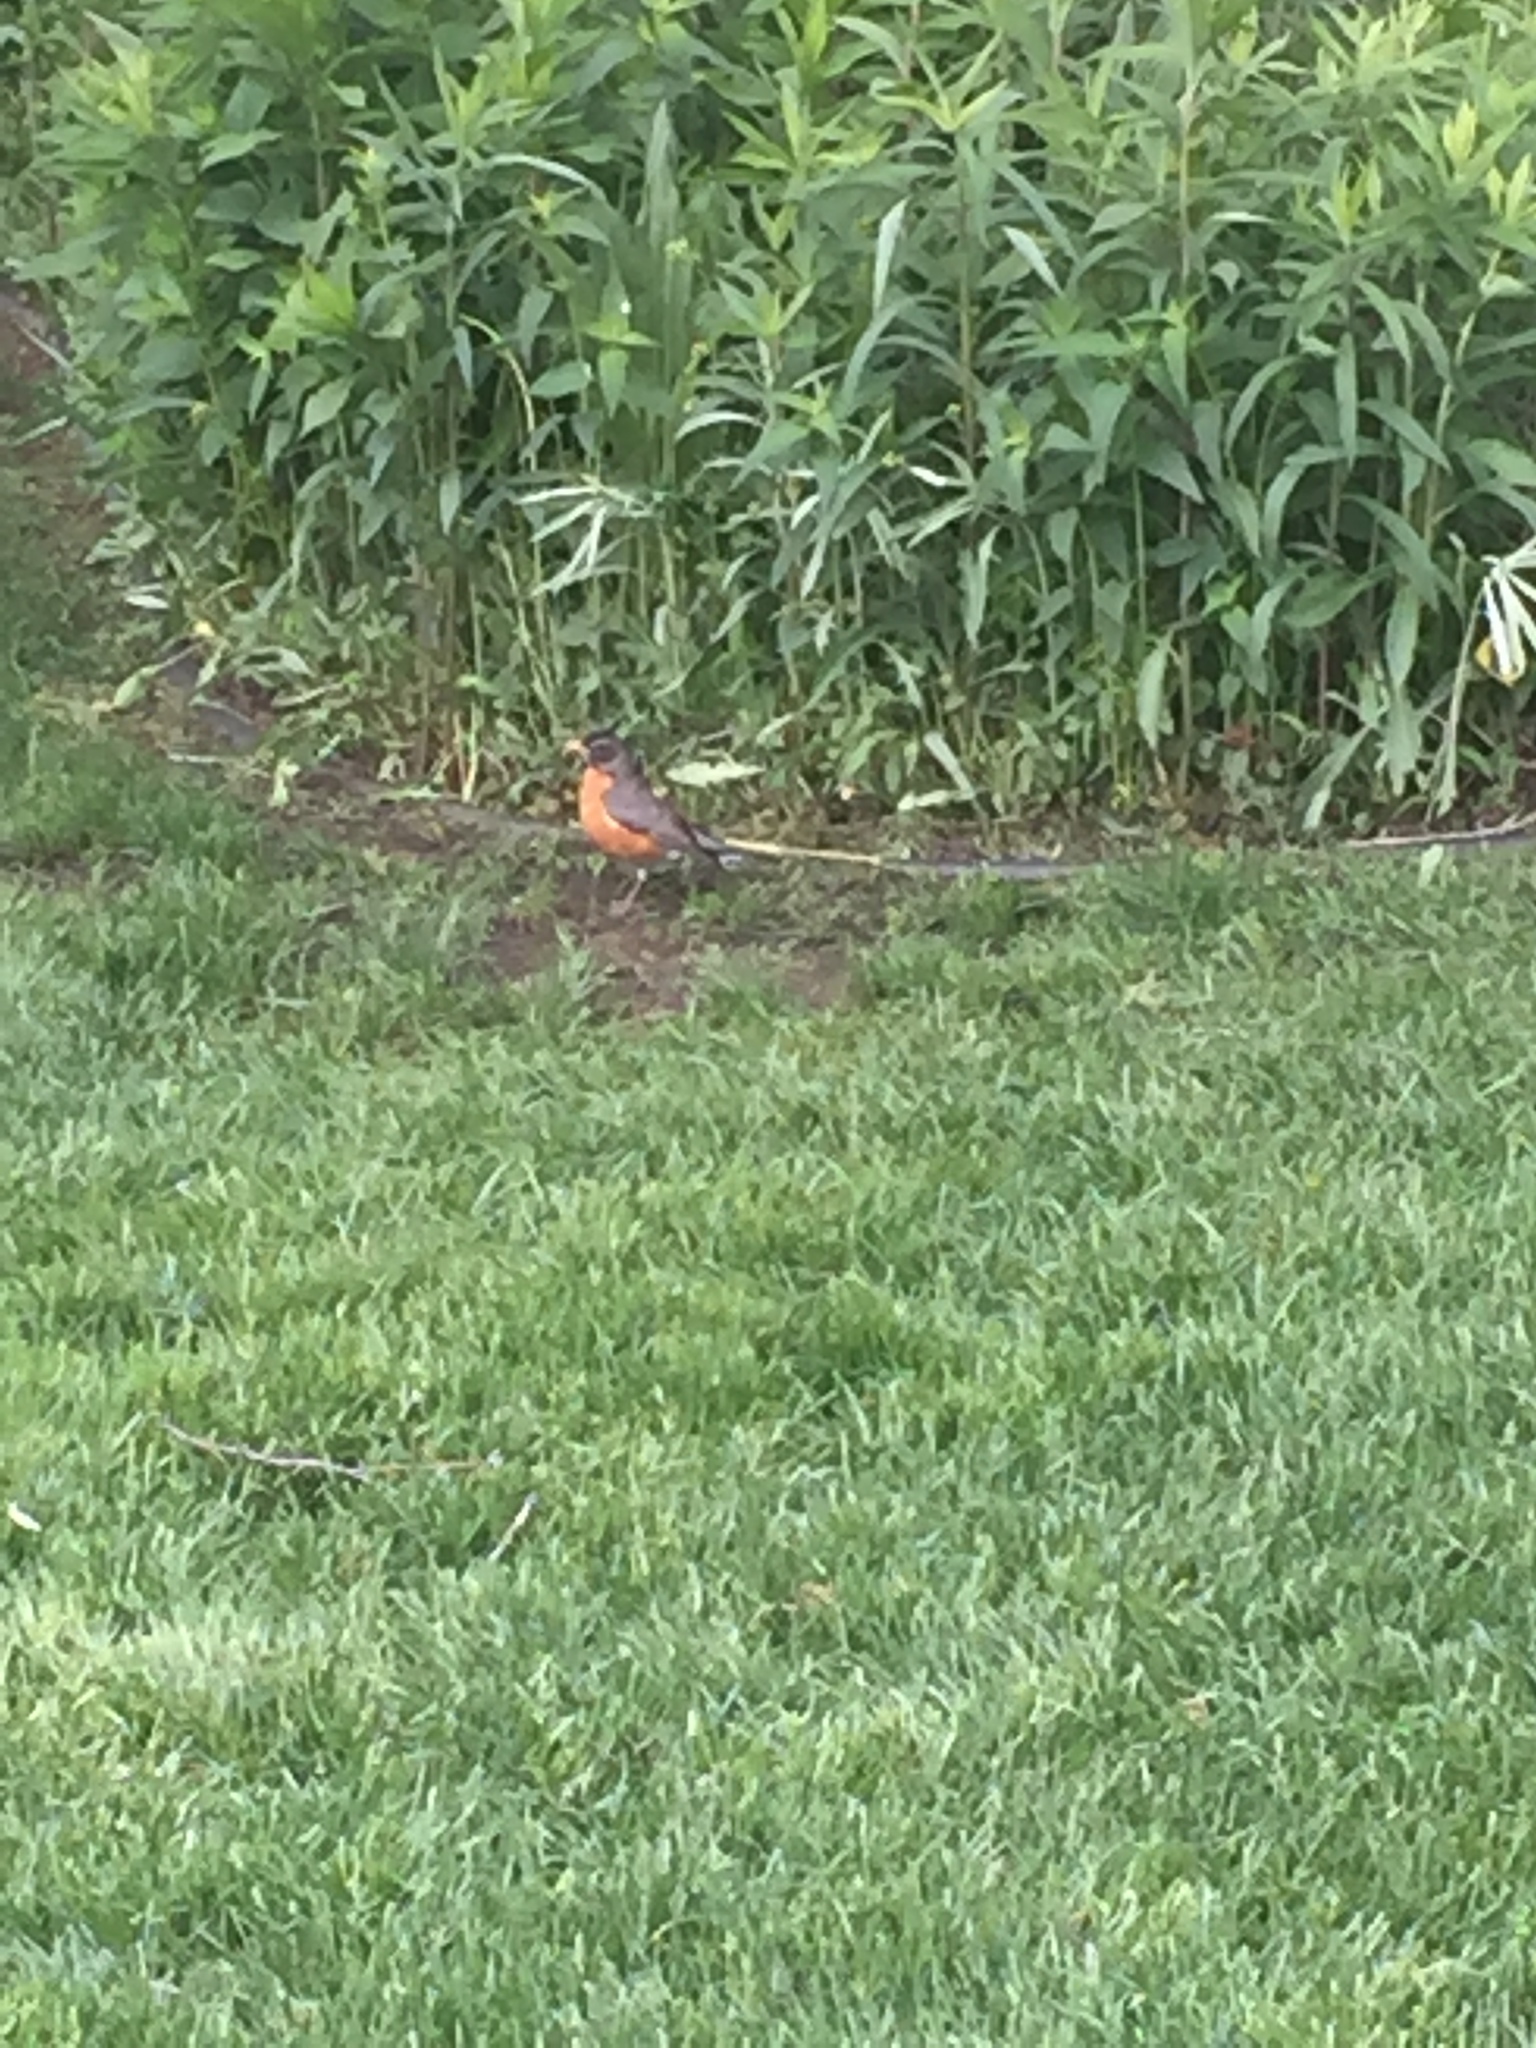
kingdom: Animalia
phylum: Chordata
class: Aves
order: Passeriformes
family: Turdidae
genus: Turdus
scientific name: Turdus migratorius
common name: American robin
